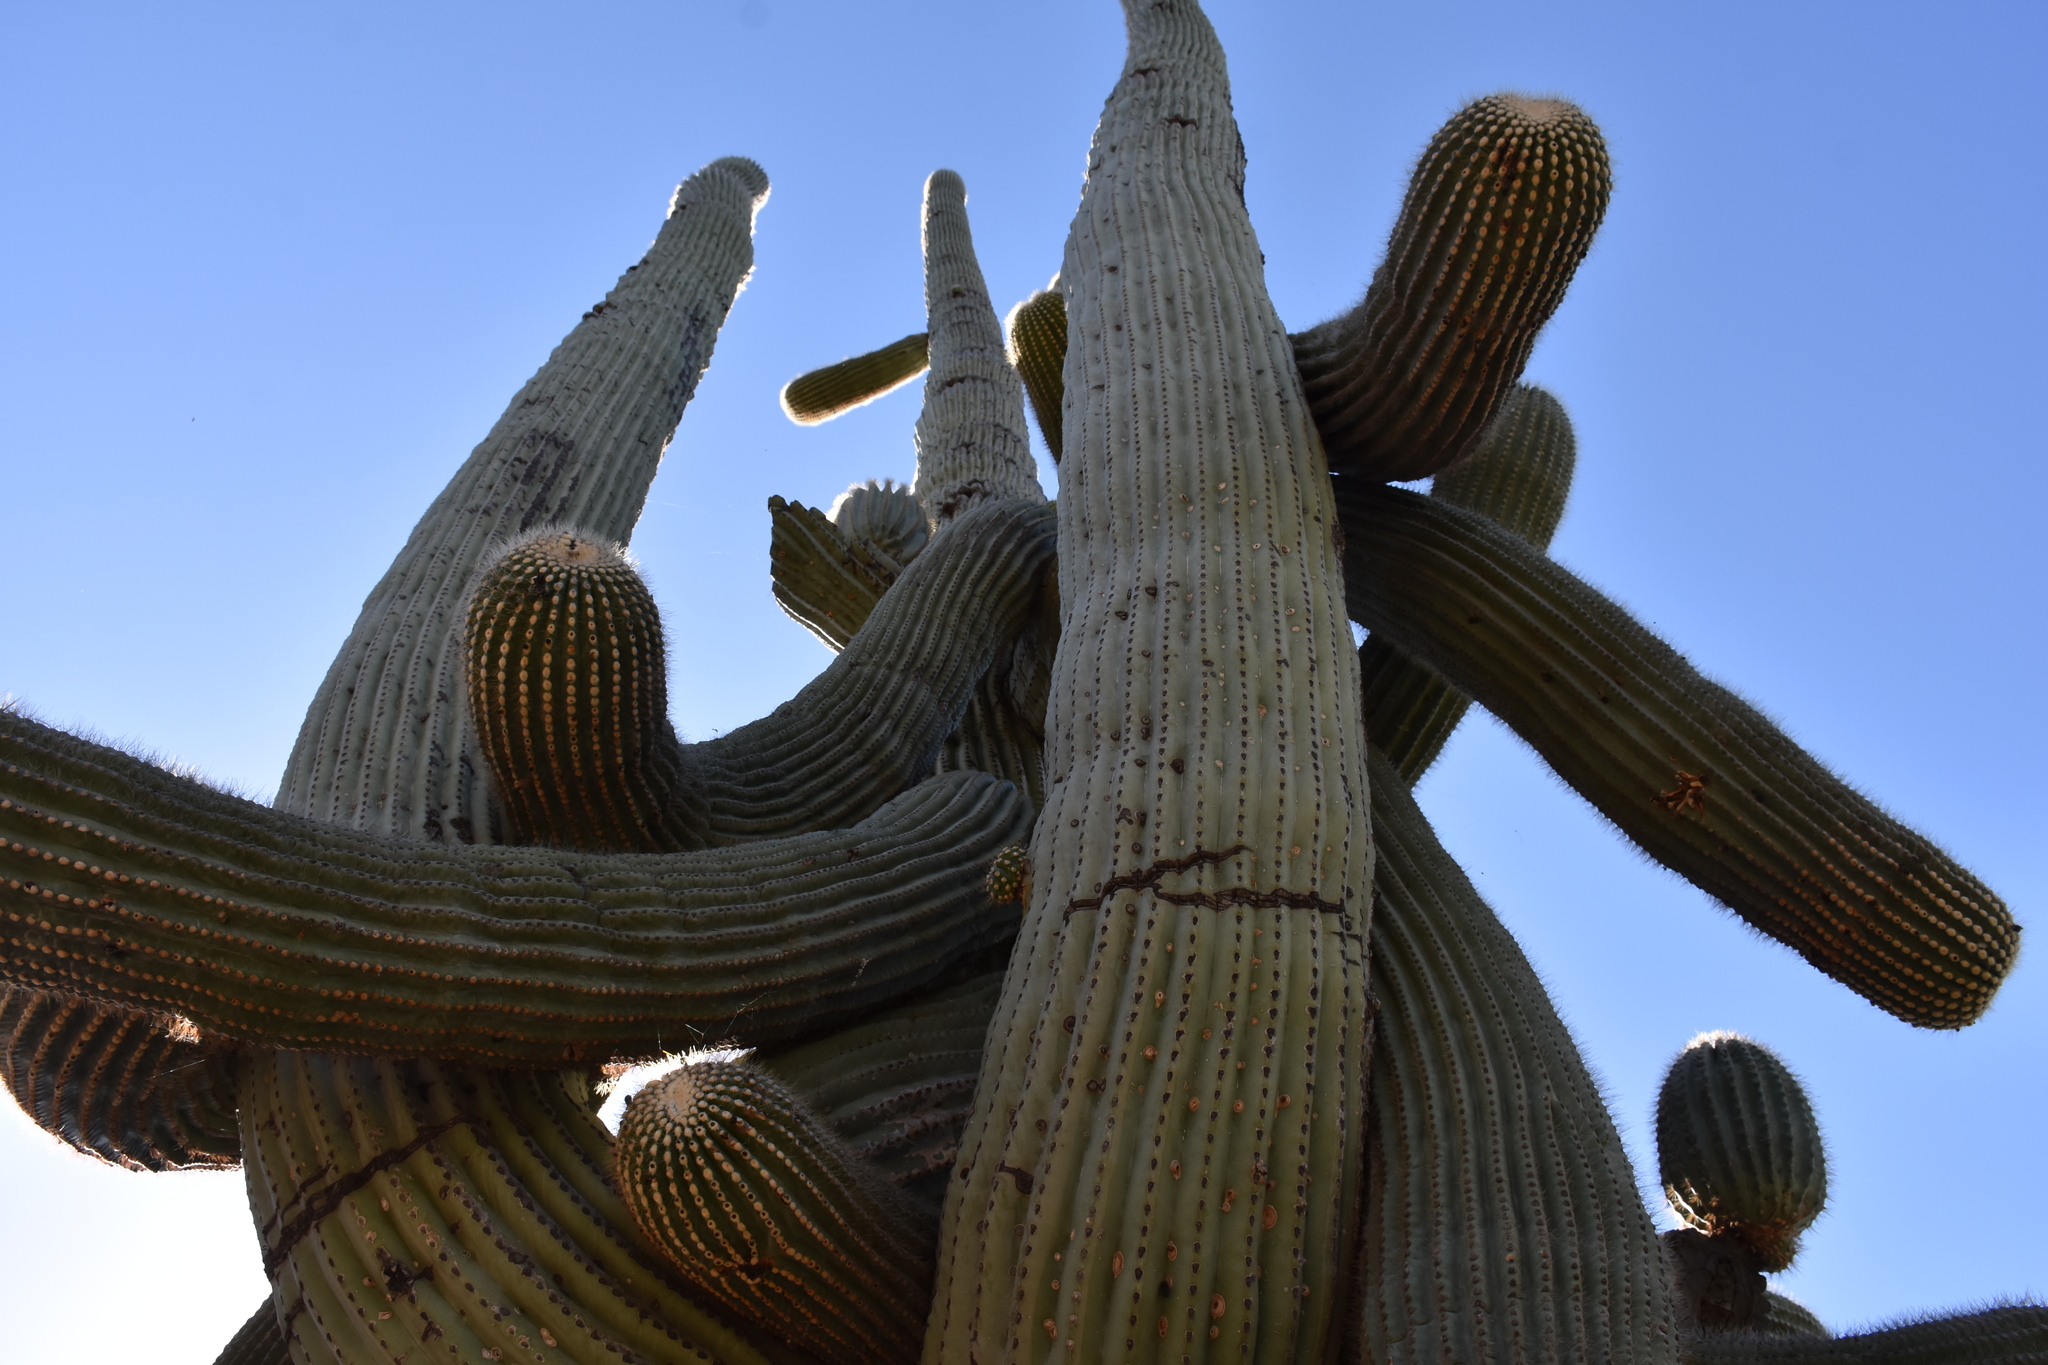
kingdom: Plantae
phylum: Tracheophyta
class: Magnoliopsida
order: Caryophyllales
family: Cactaceae
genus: Carnegiea
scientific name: Carnegiea gigantea
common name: Saguaro
